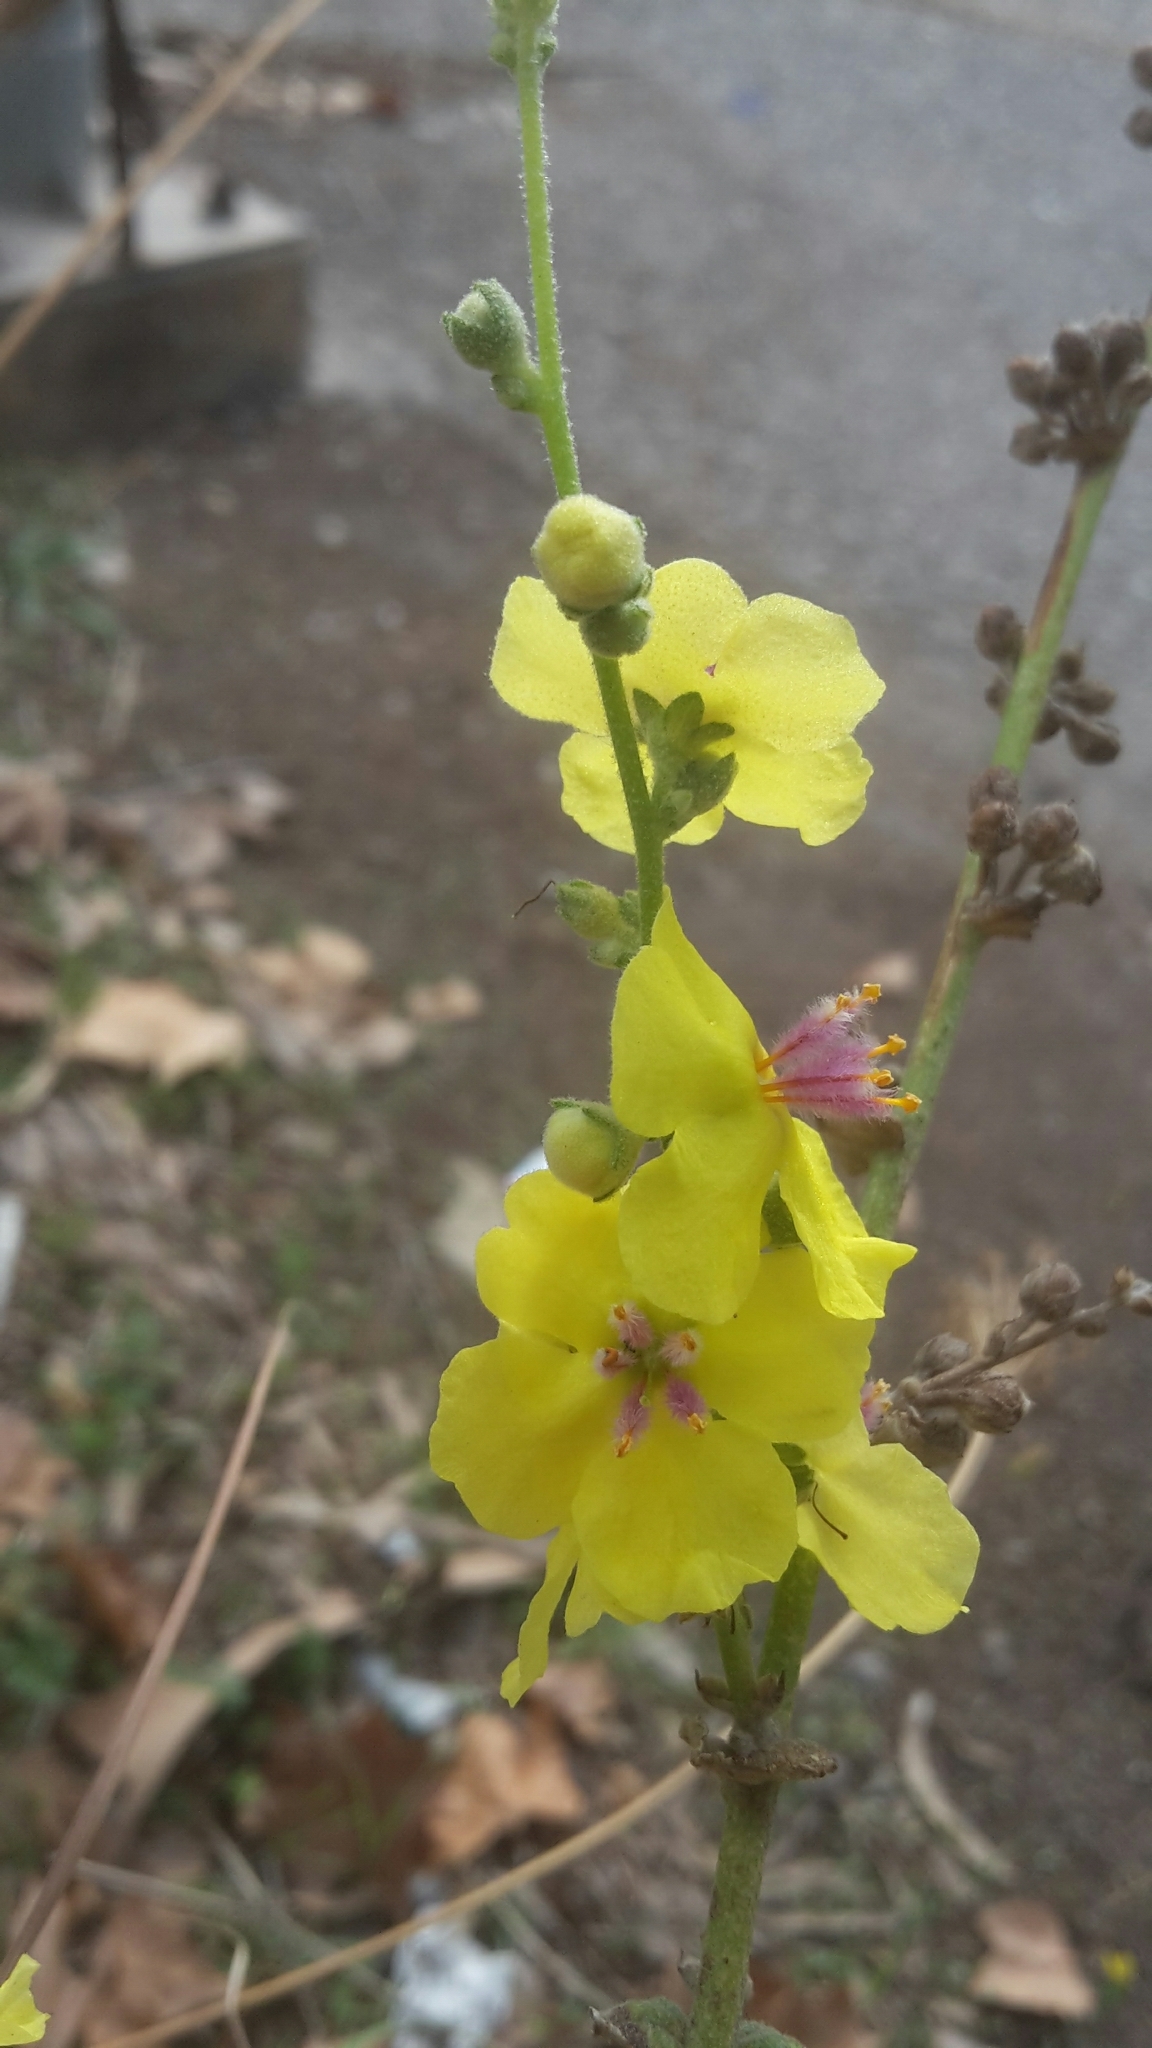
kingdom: Plantae
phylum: Tracheophyta
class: Magnoliopsida
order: Lamiales
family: Scrophulariaceae
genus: Verbascum
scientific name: Verbascum sinuatum
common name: Wavyleaf mullein
